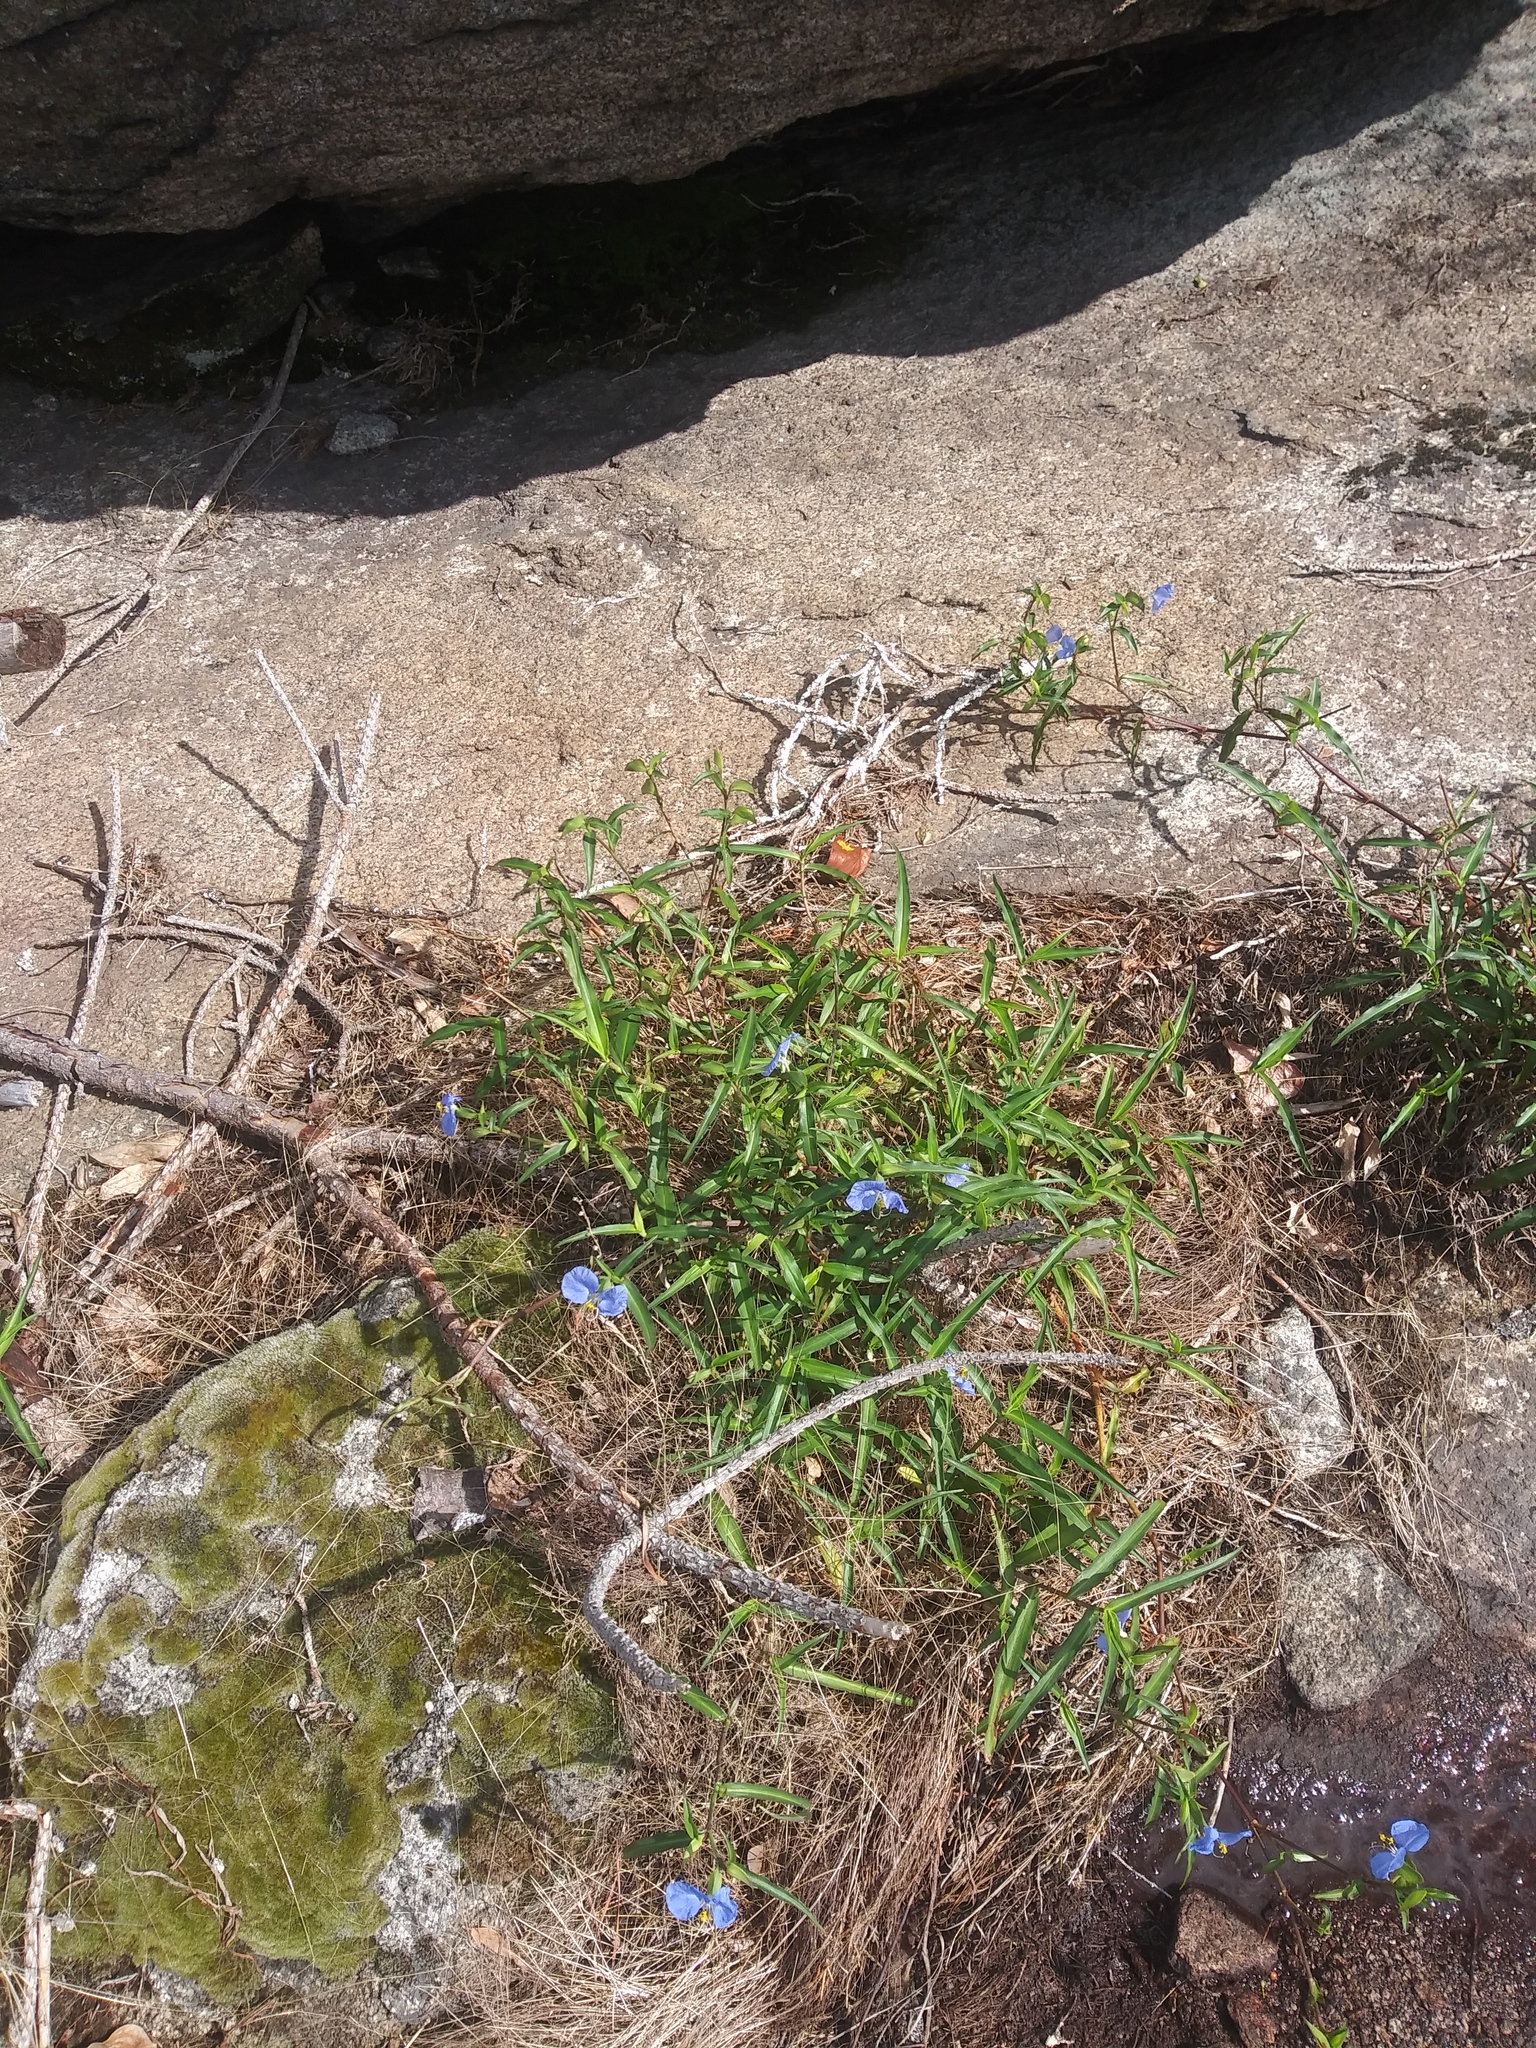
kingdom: Plantae
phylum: Tracheophyta
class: Liliopsida
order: Commelinales
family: Commelinaceae
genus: Commelina
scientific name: Commelina erecta
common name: Blousel blommetjie
